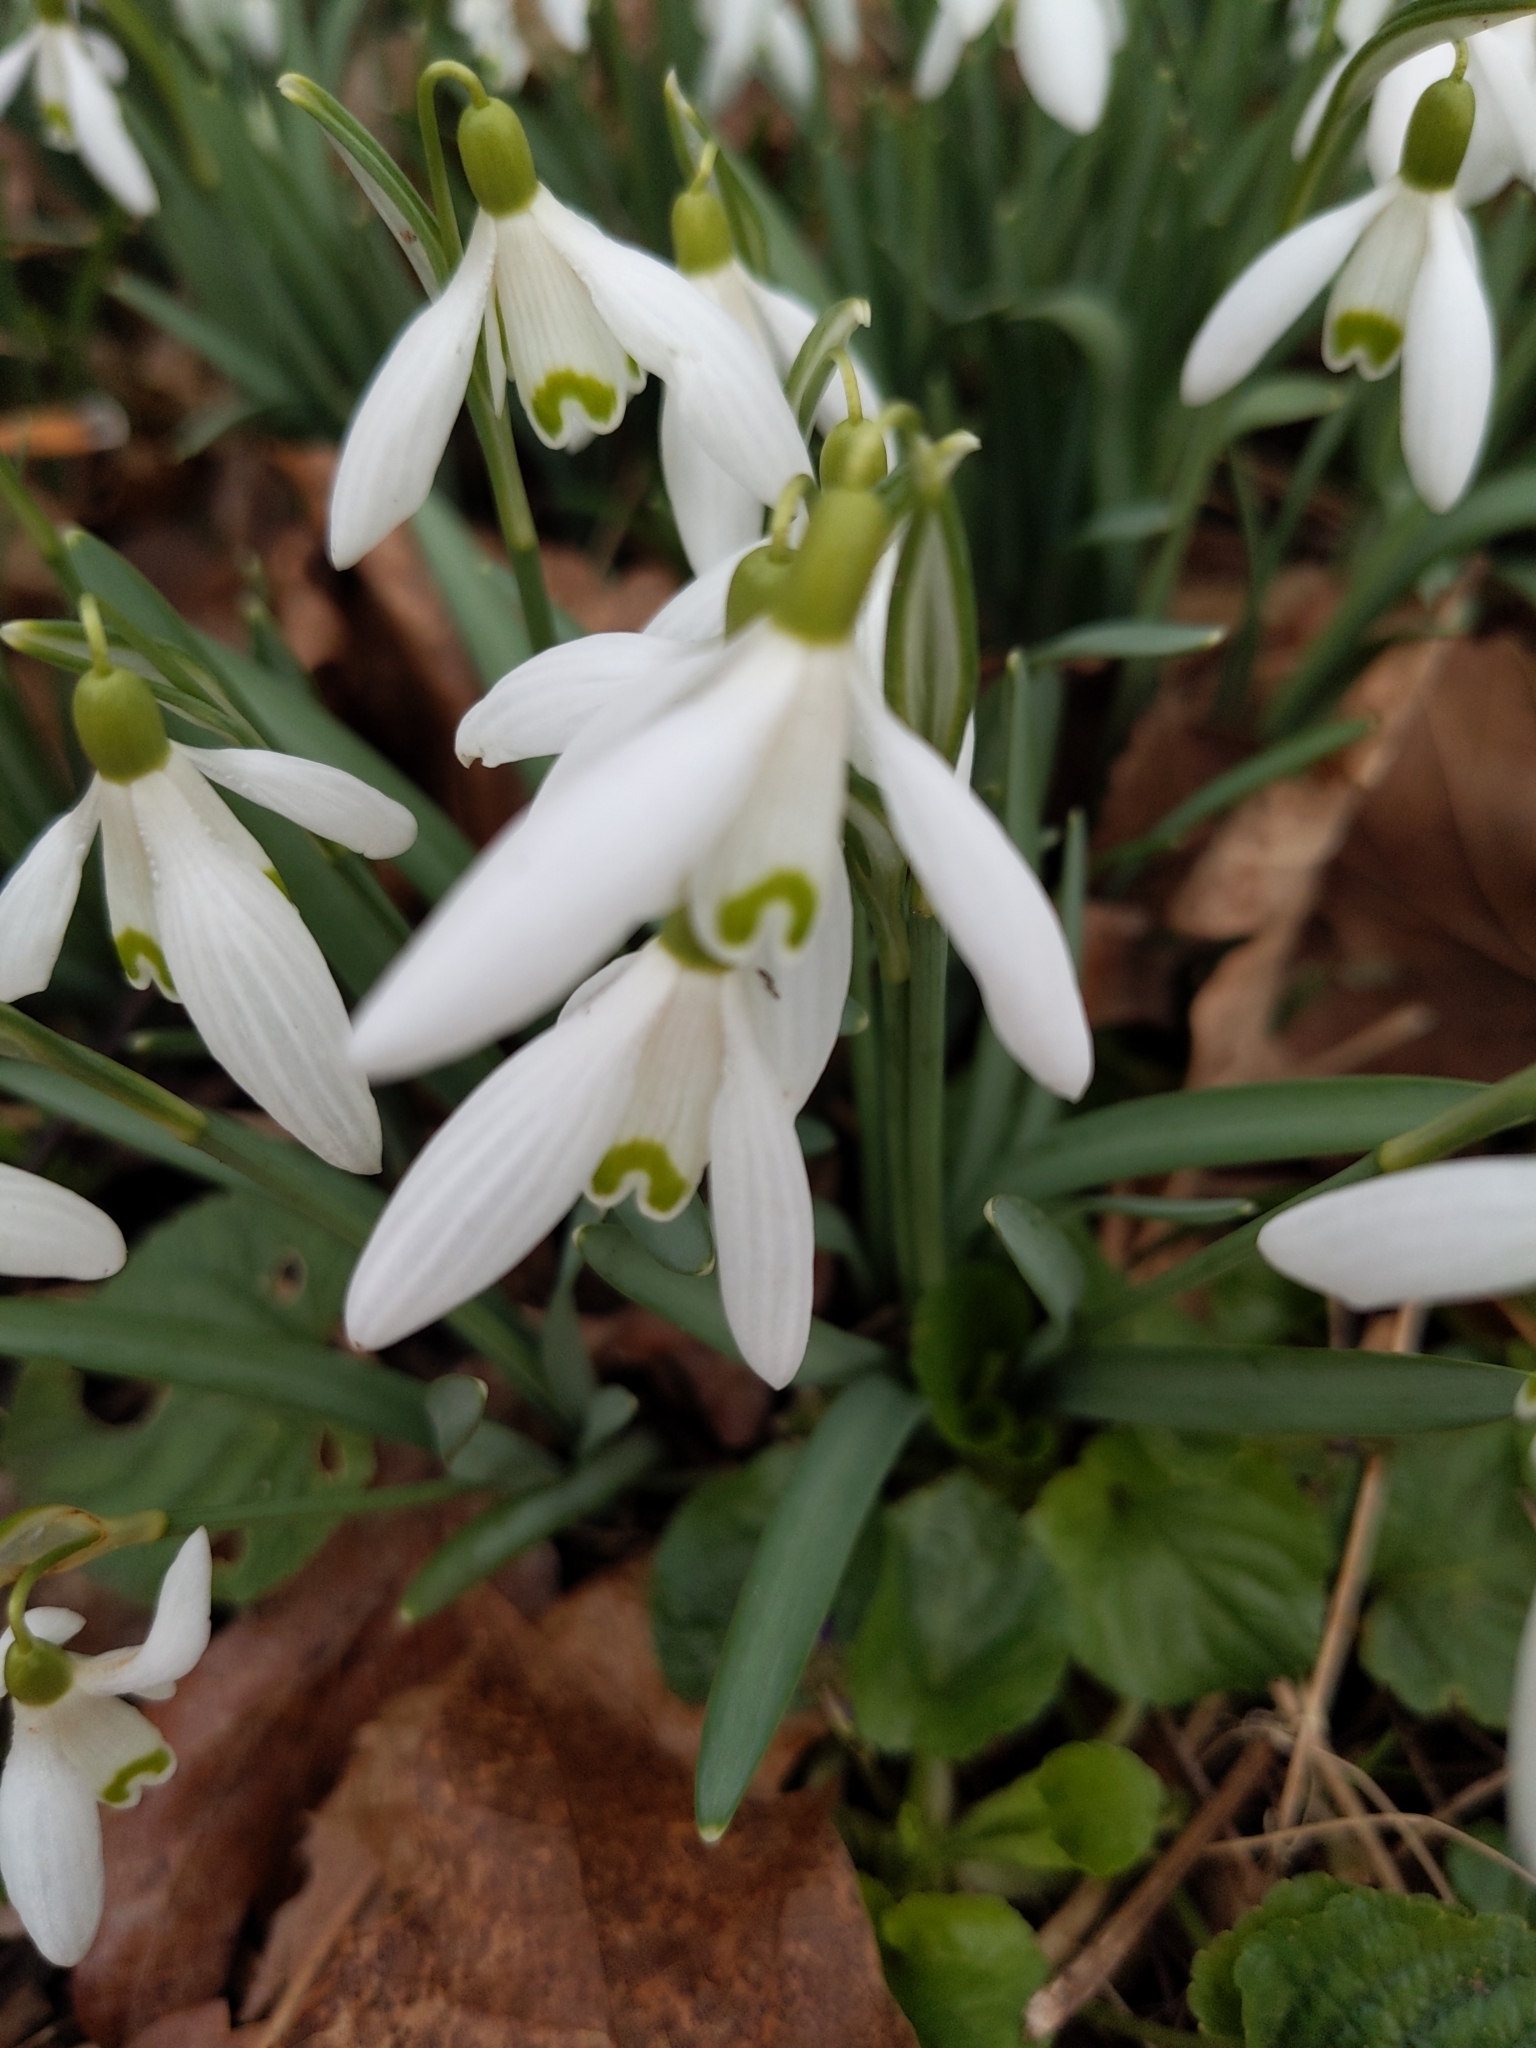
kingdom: Plantae
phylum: Tracheophyta
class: Liliopsida
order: Asparagales
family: Amaryllidaceae
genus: Galanthus
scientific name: Galanthus nivalis
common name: Snowdrop
